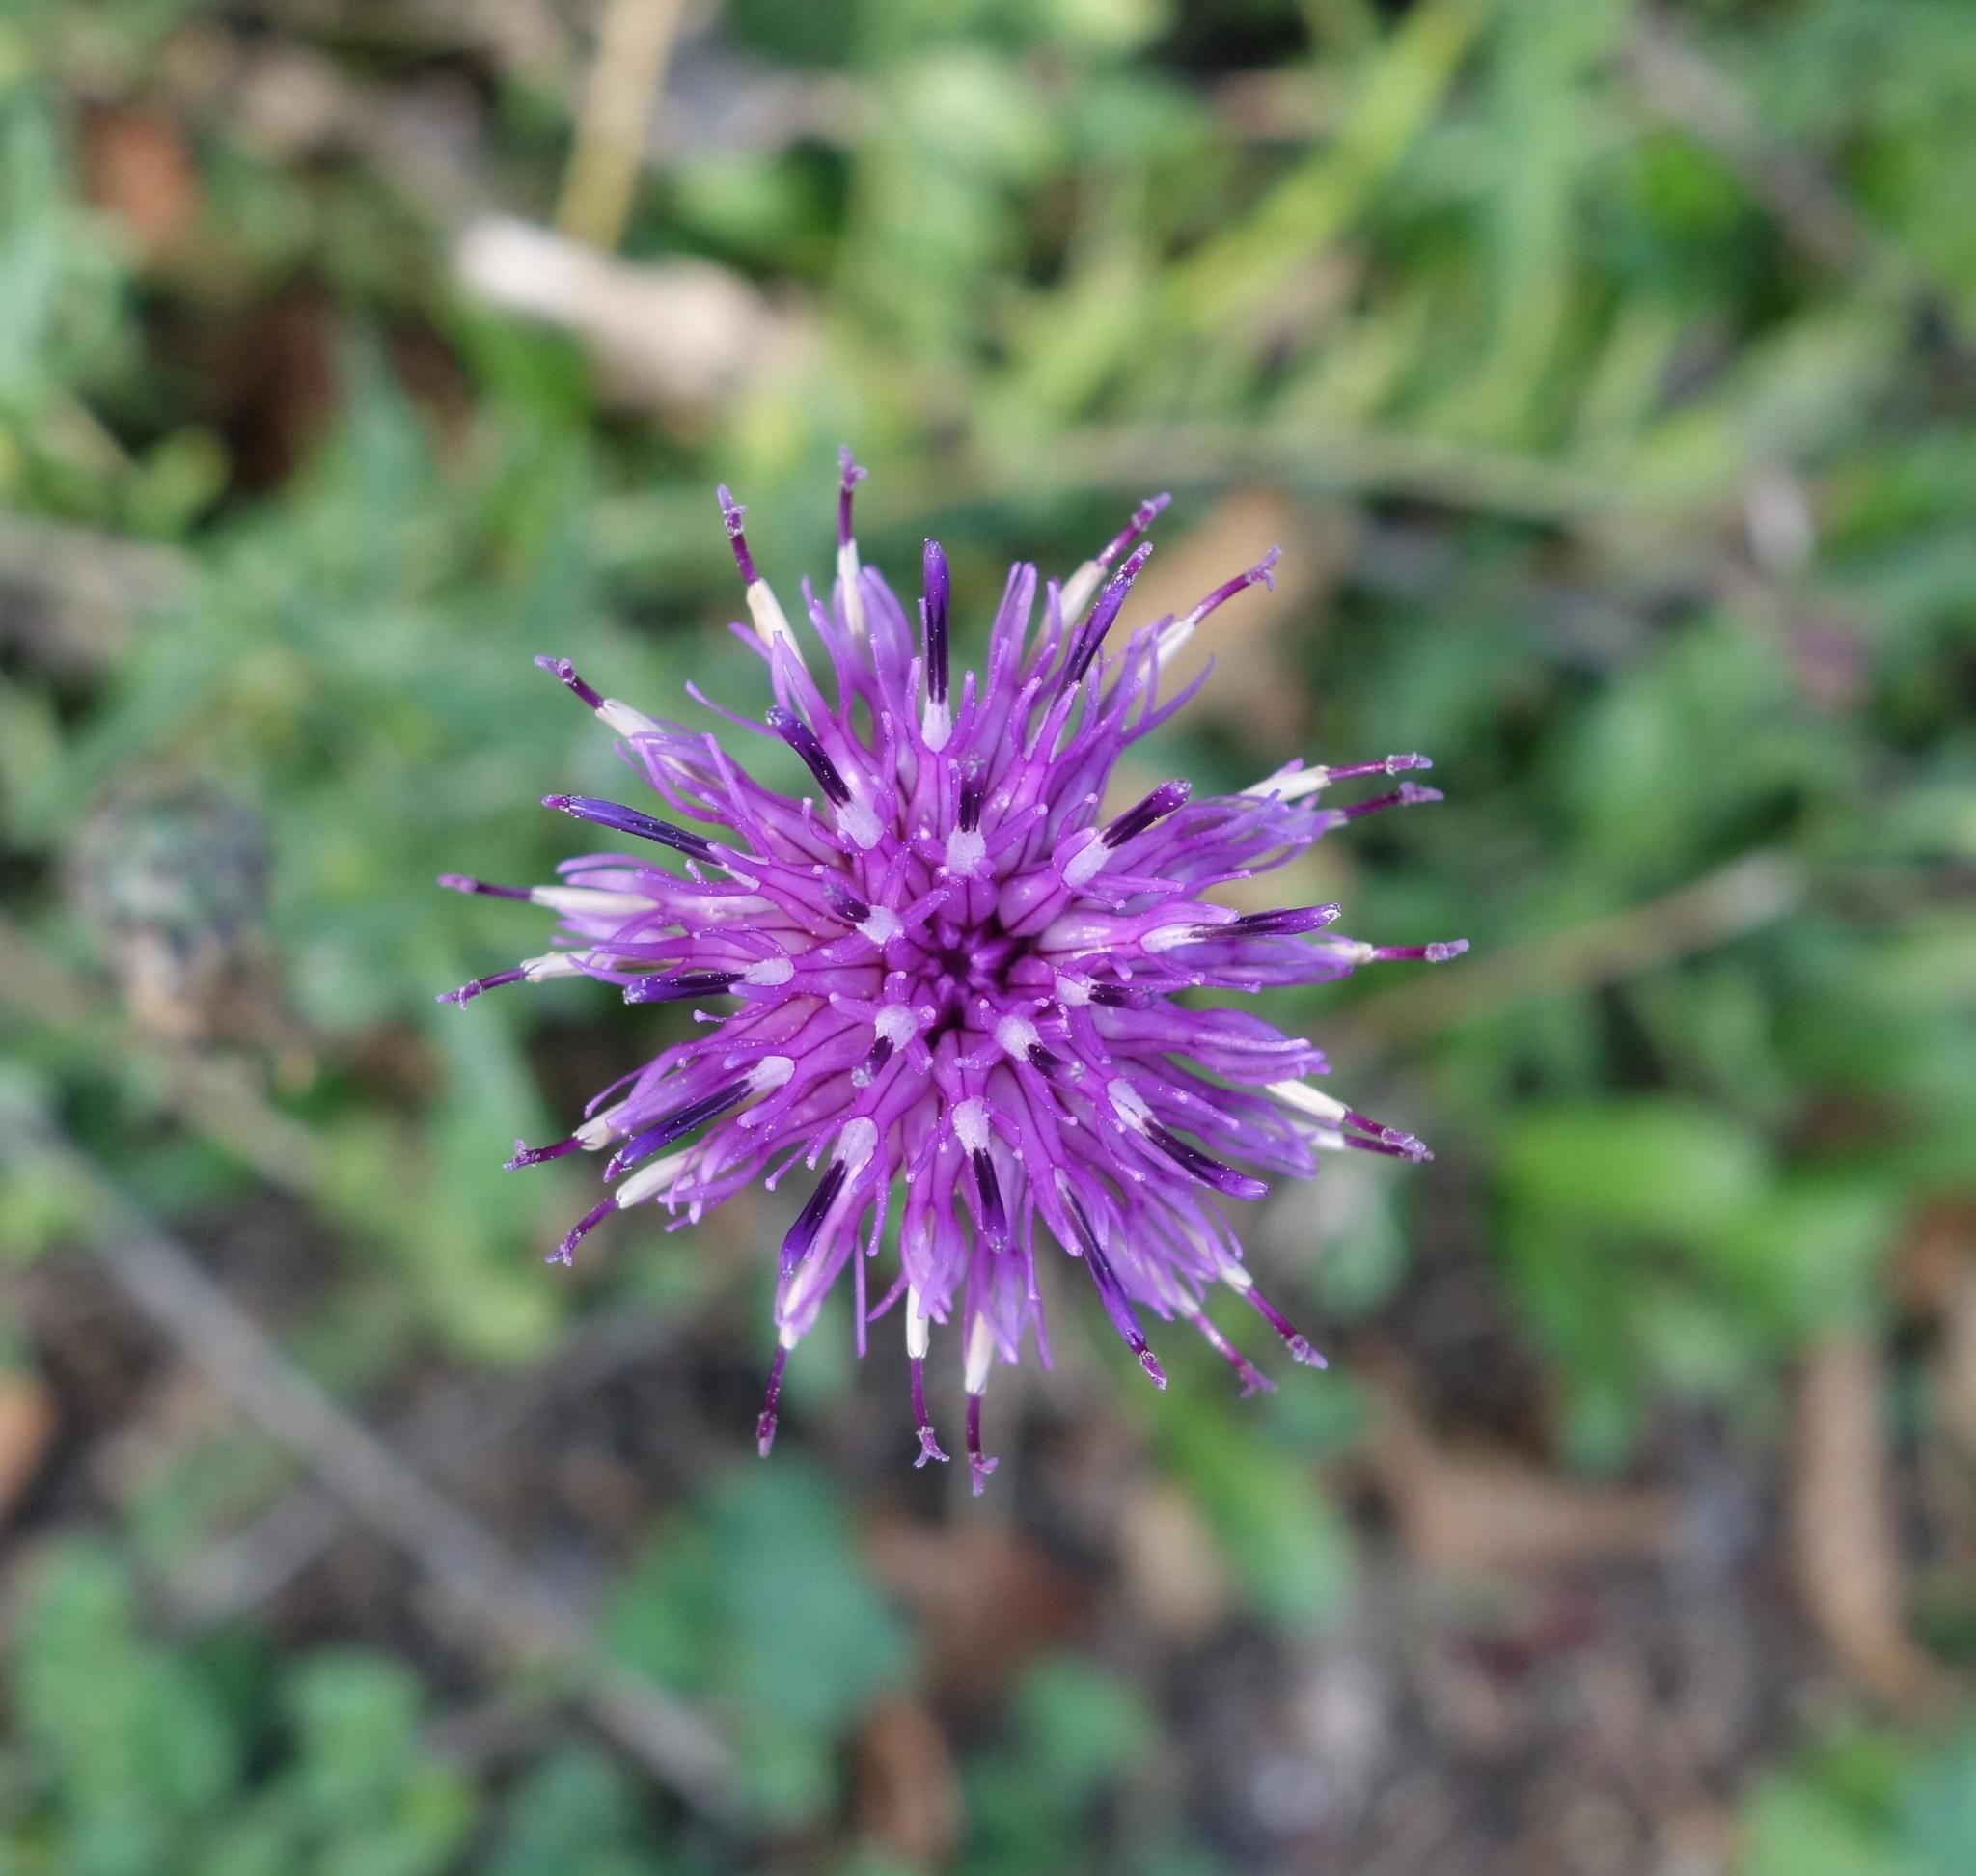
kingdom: Plantae
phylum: Tracheophyta
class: Magnoliopsida
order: Asterales
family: Asteraceae
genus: Centaurea
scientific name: Centaurea scabiosa
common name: Greater knapweed
